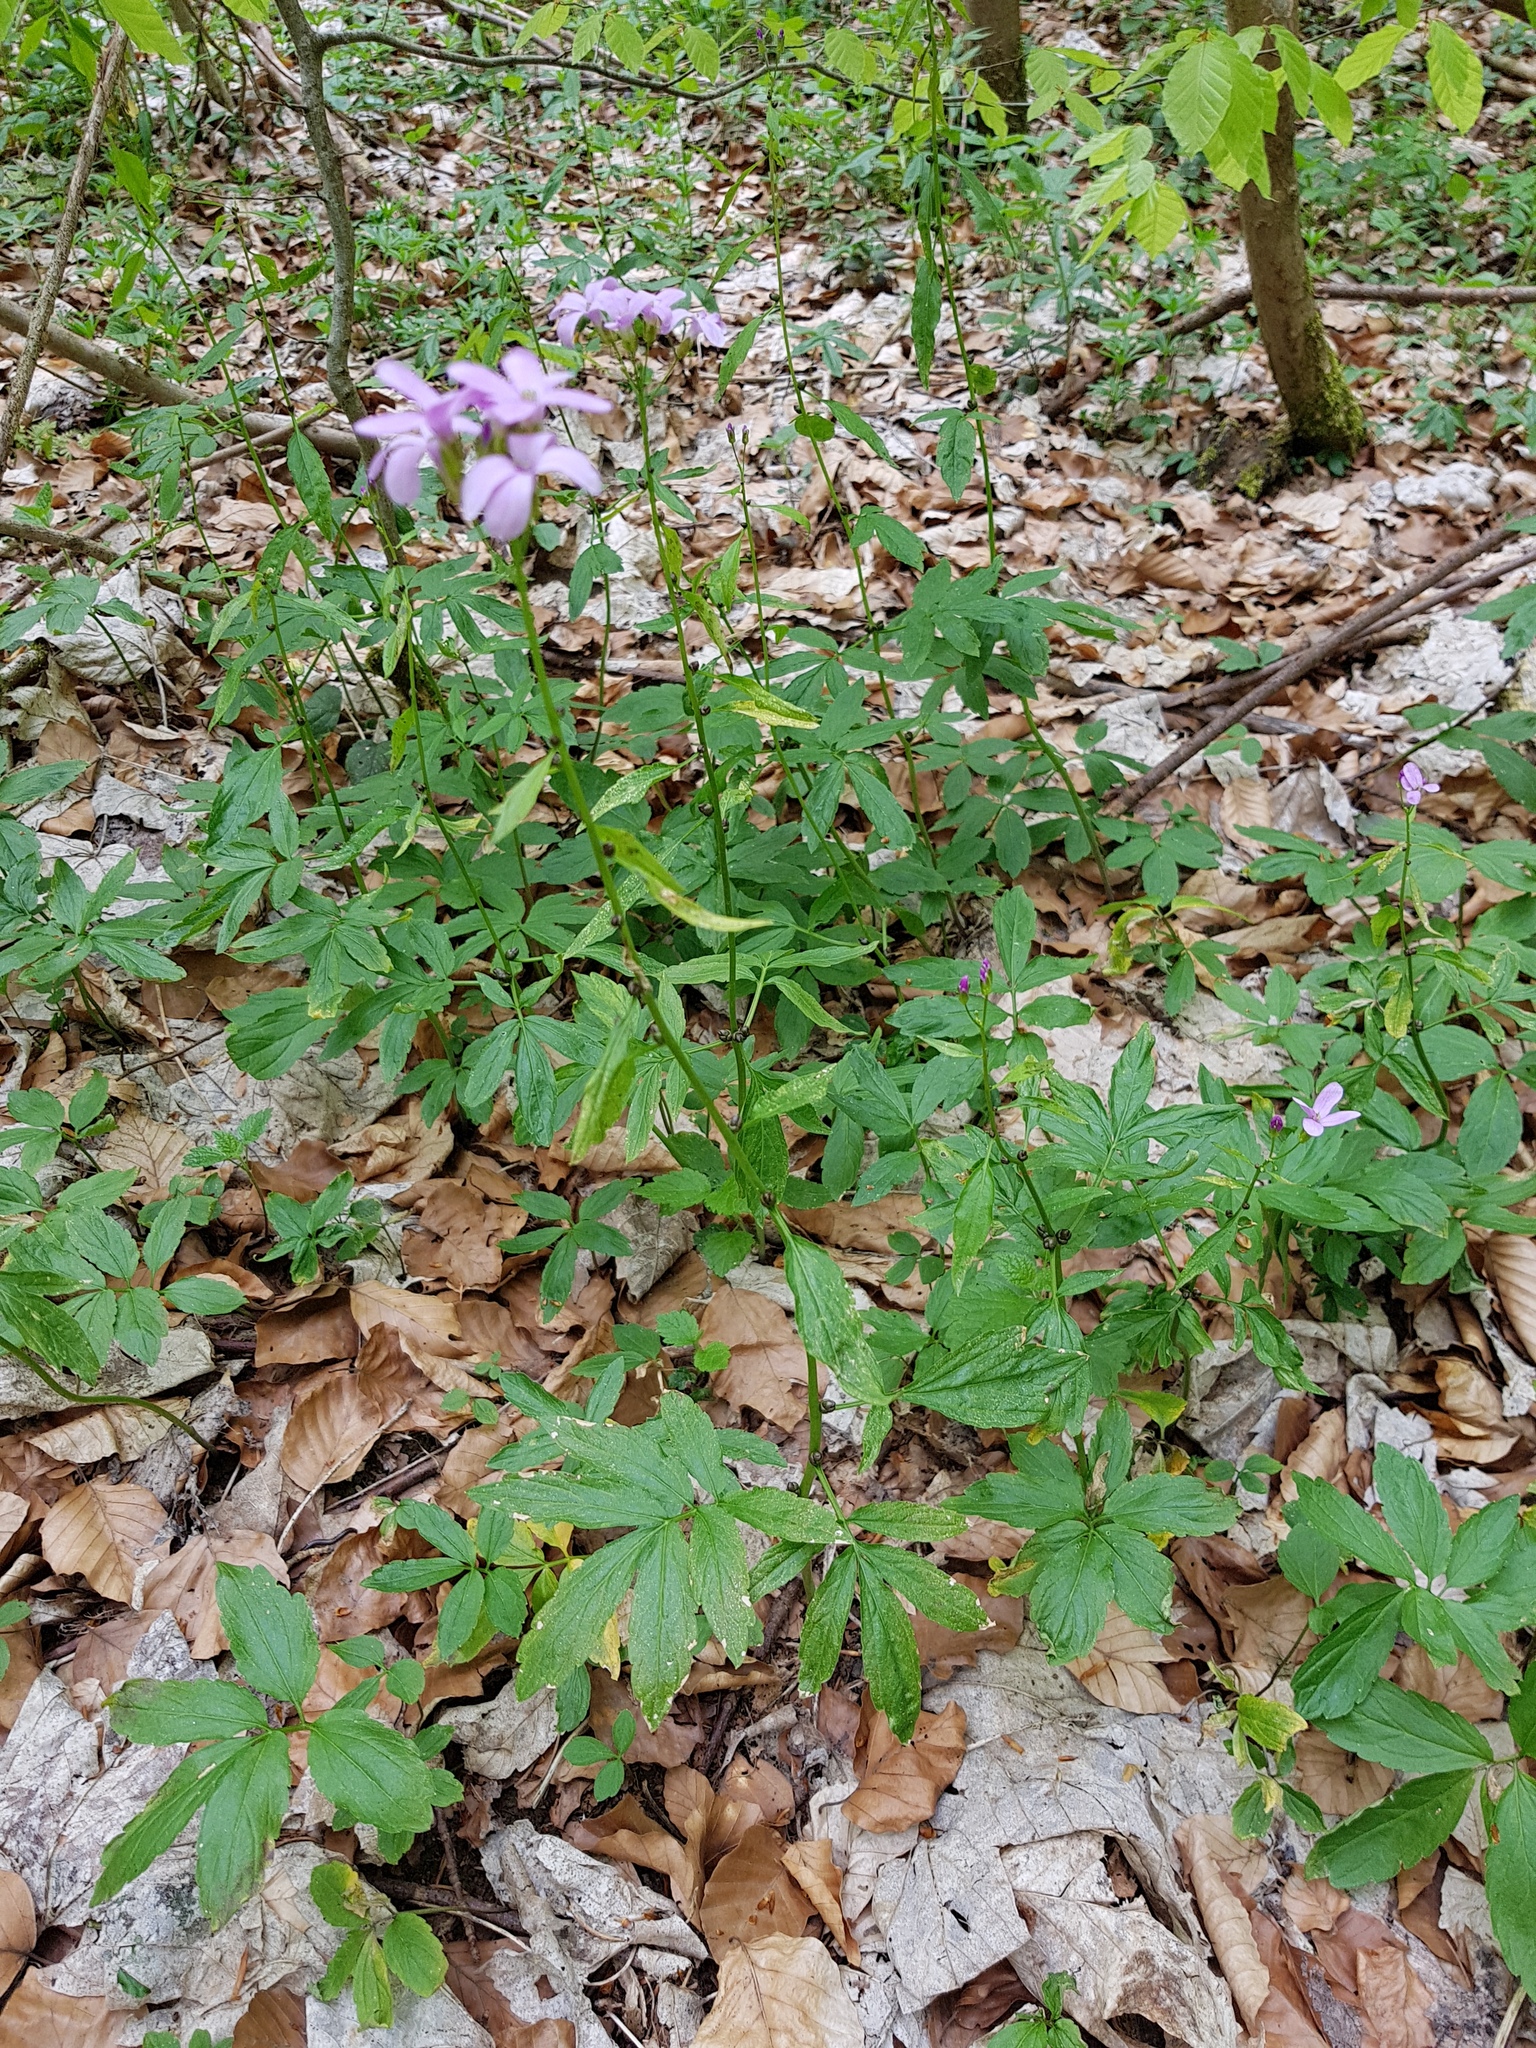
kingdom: Plantae
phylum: Tracheophyta
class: Magnoliopsida
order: Brassicales
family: Brassicaceae
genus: Cardamine
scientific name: Cardamine bulbifera
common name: Coralroot bittercress
